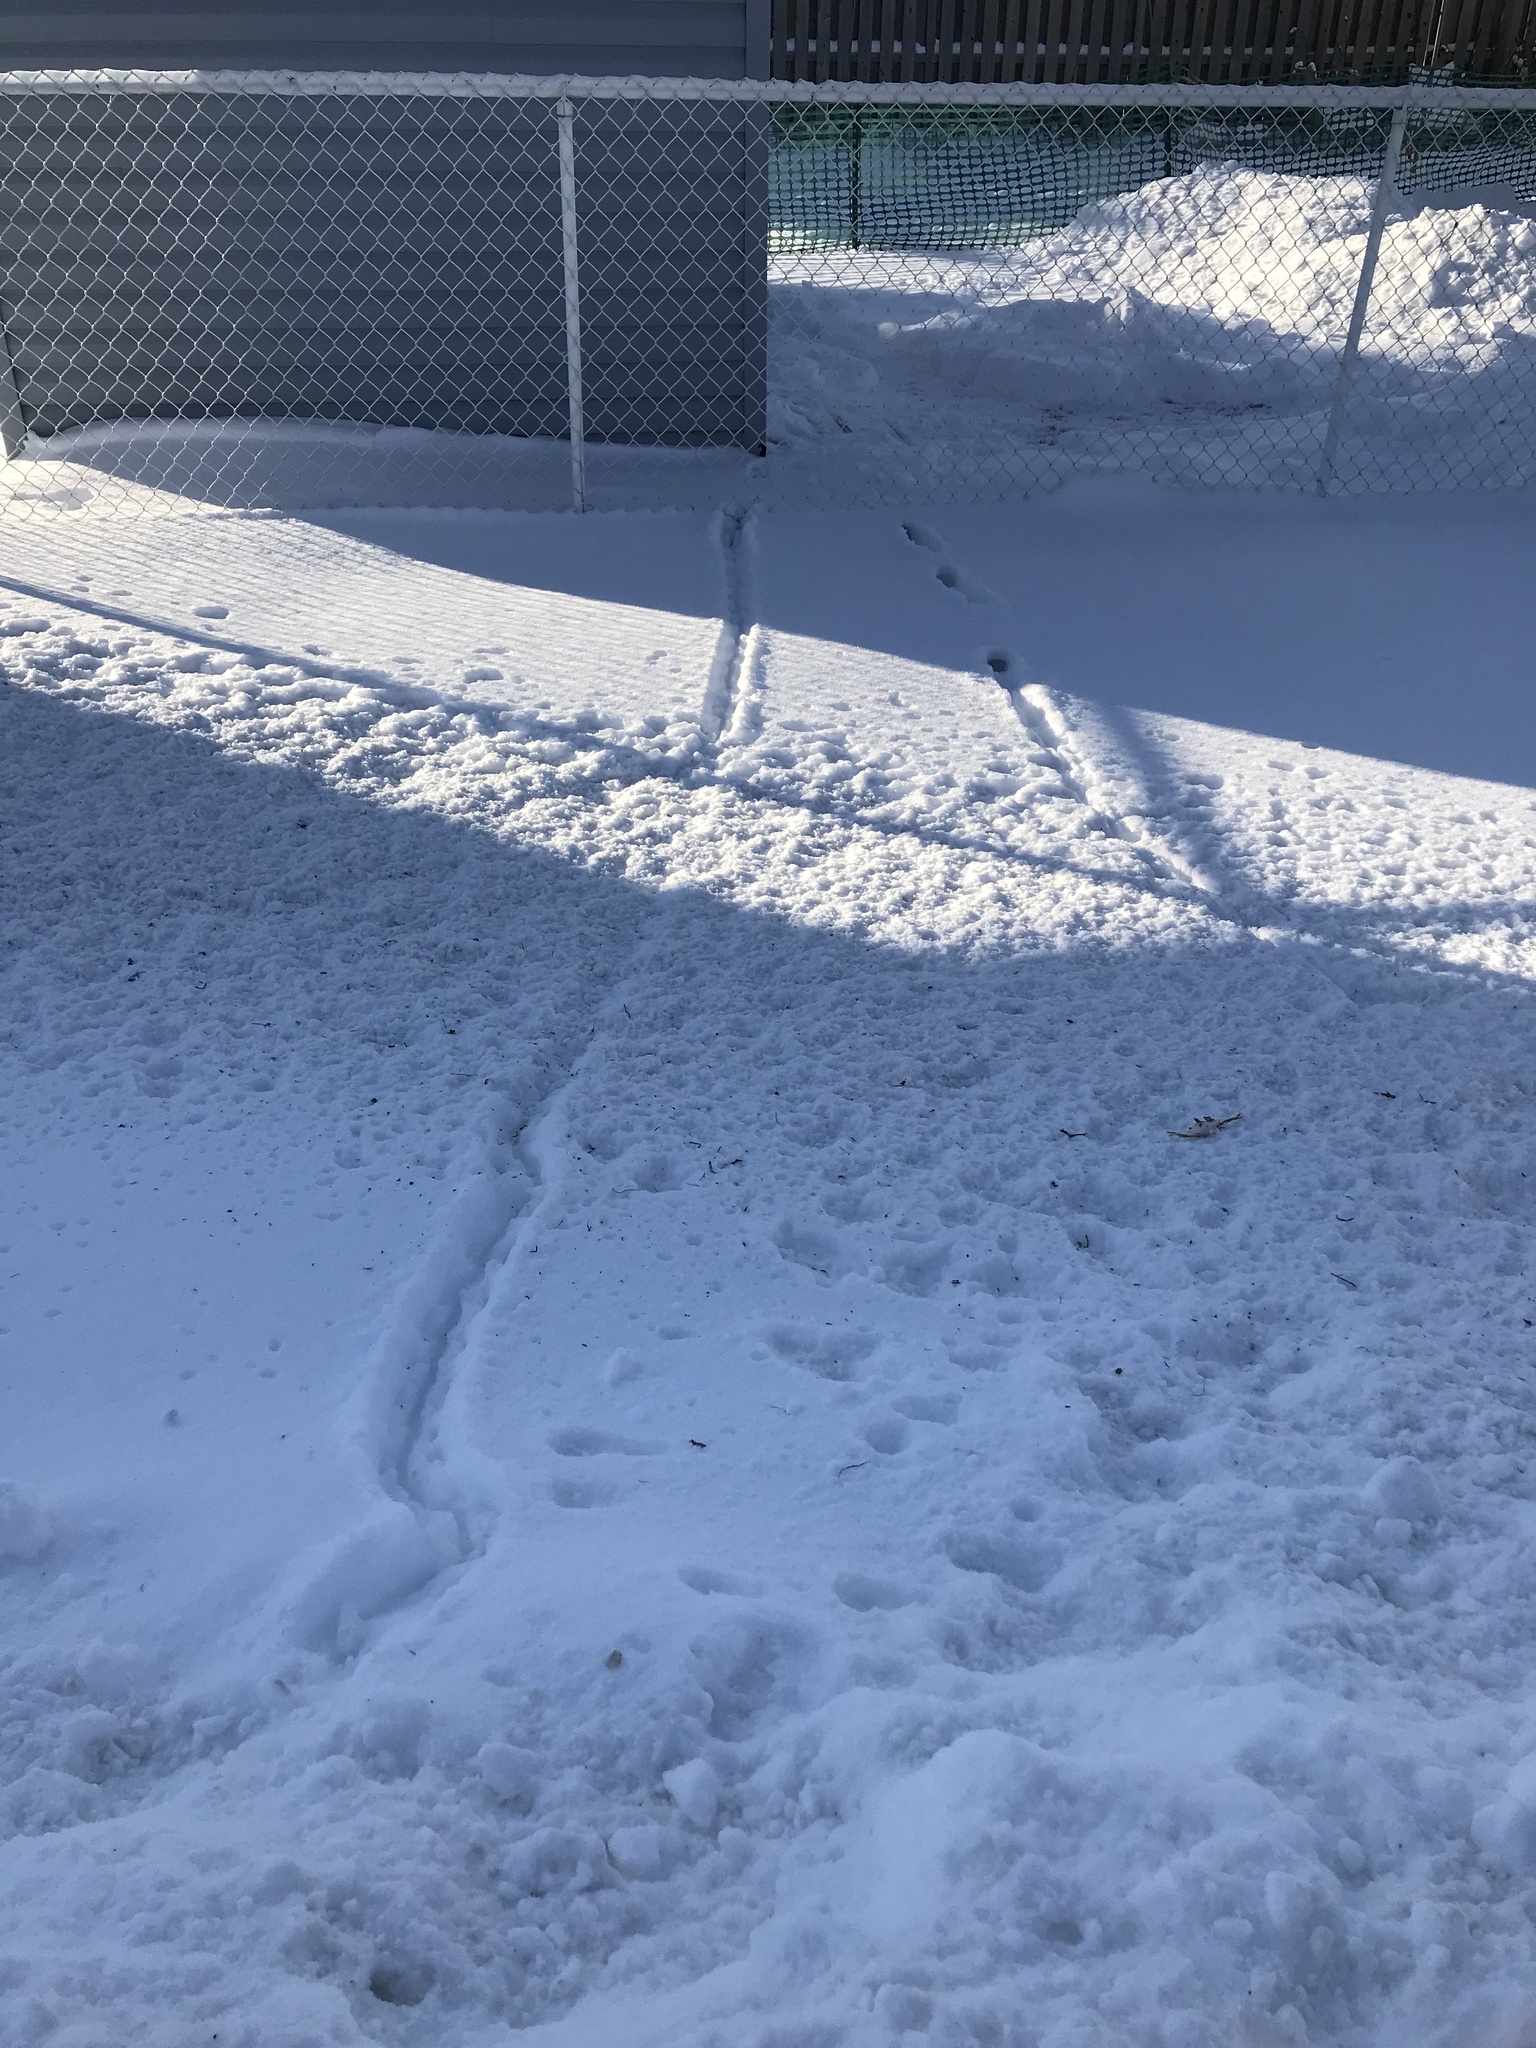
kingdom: Animalia
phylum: Chordata
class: Mammalia
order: Rodentia
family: Muridae
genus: Rattus
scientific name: Rattus norvegicus
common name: Brown rat
